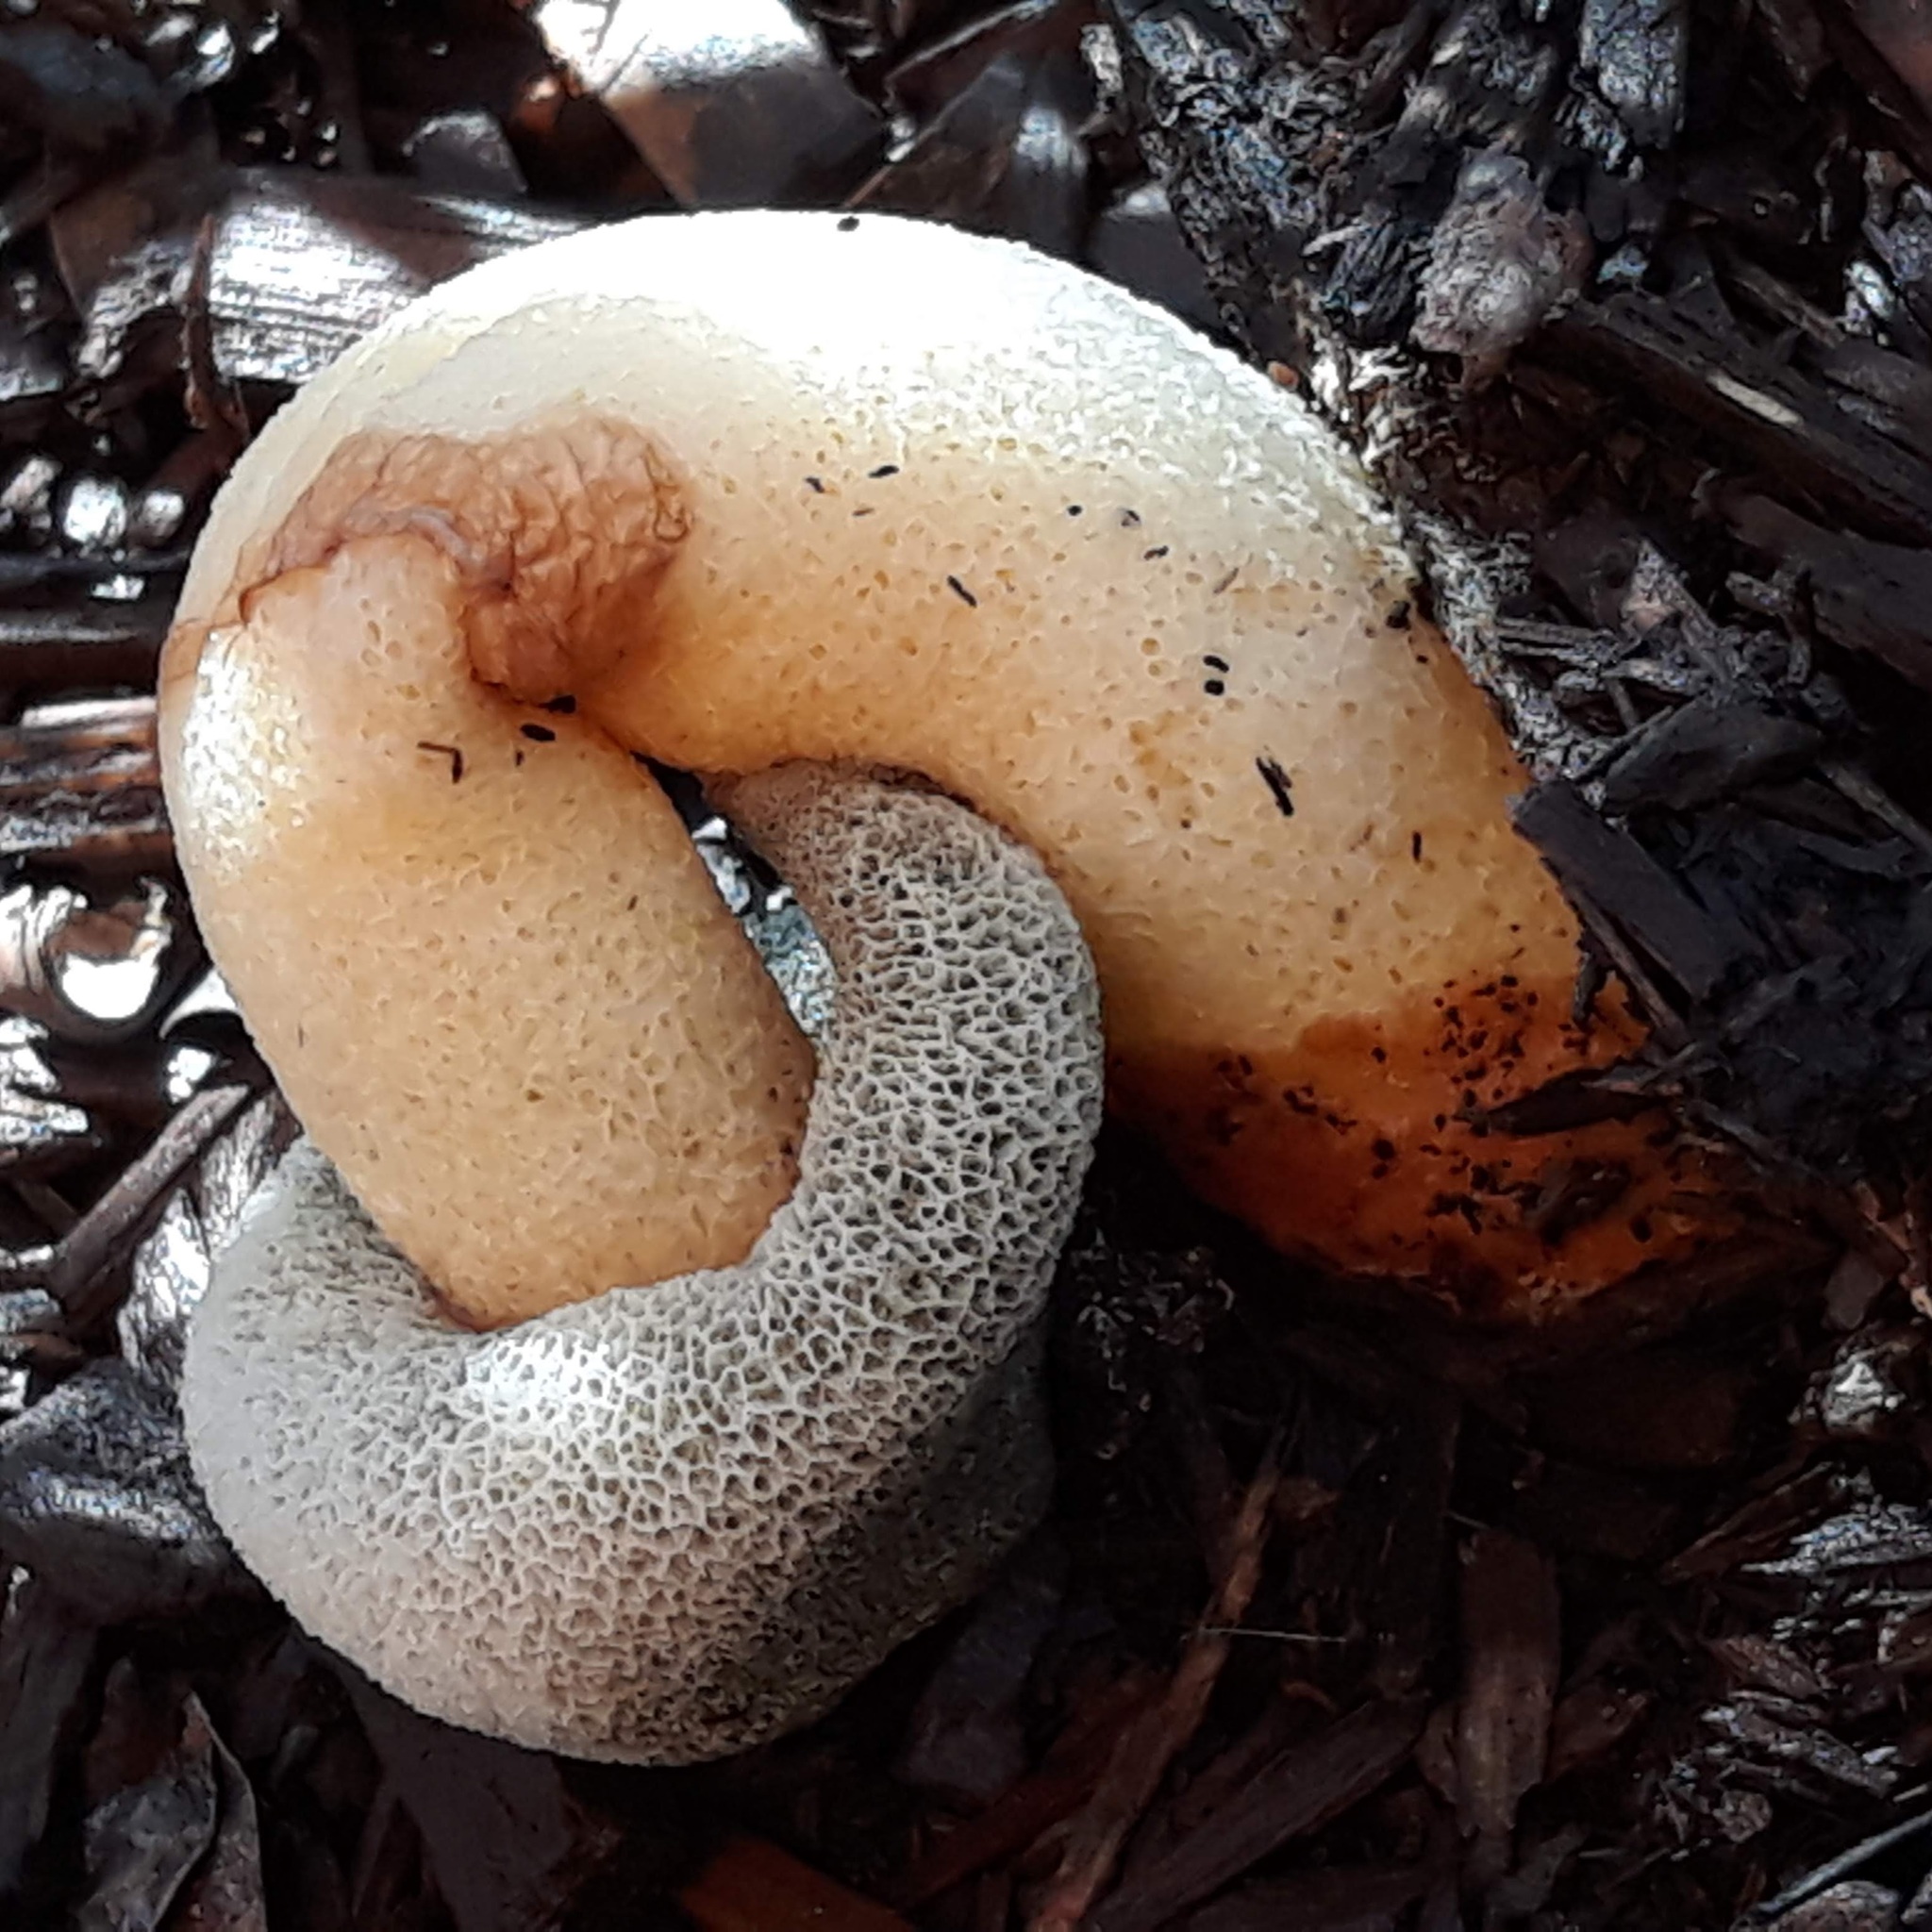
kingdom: Fungi
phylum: Basidiomycota
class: Agaricomycetes
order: Phallales
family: Phallaceae
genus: Phallus
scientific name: Phallus ravenelii
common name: Ravenel's stinkhorn
